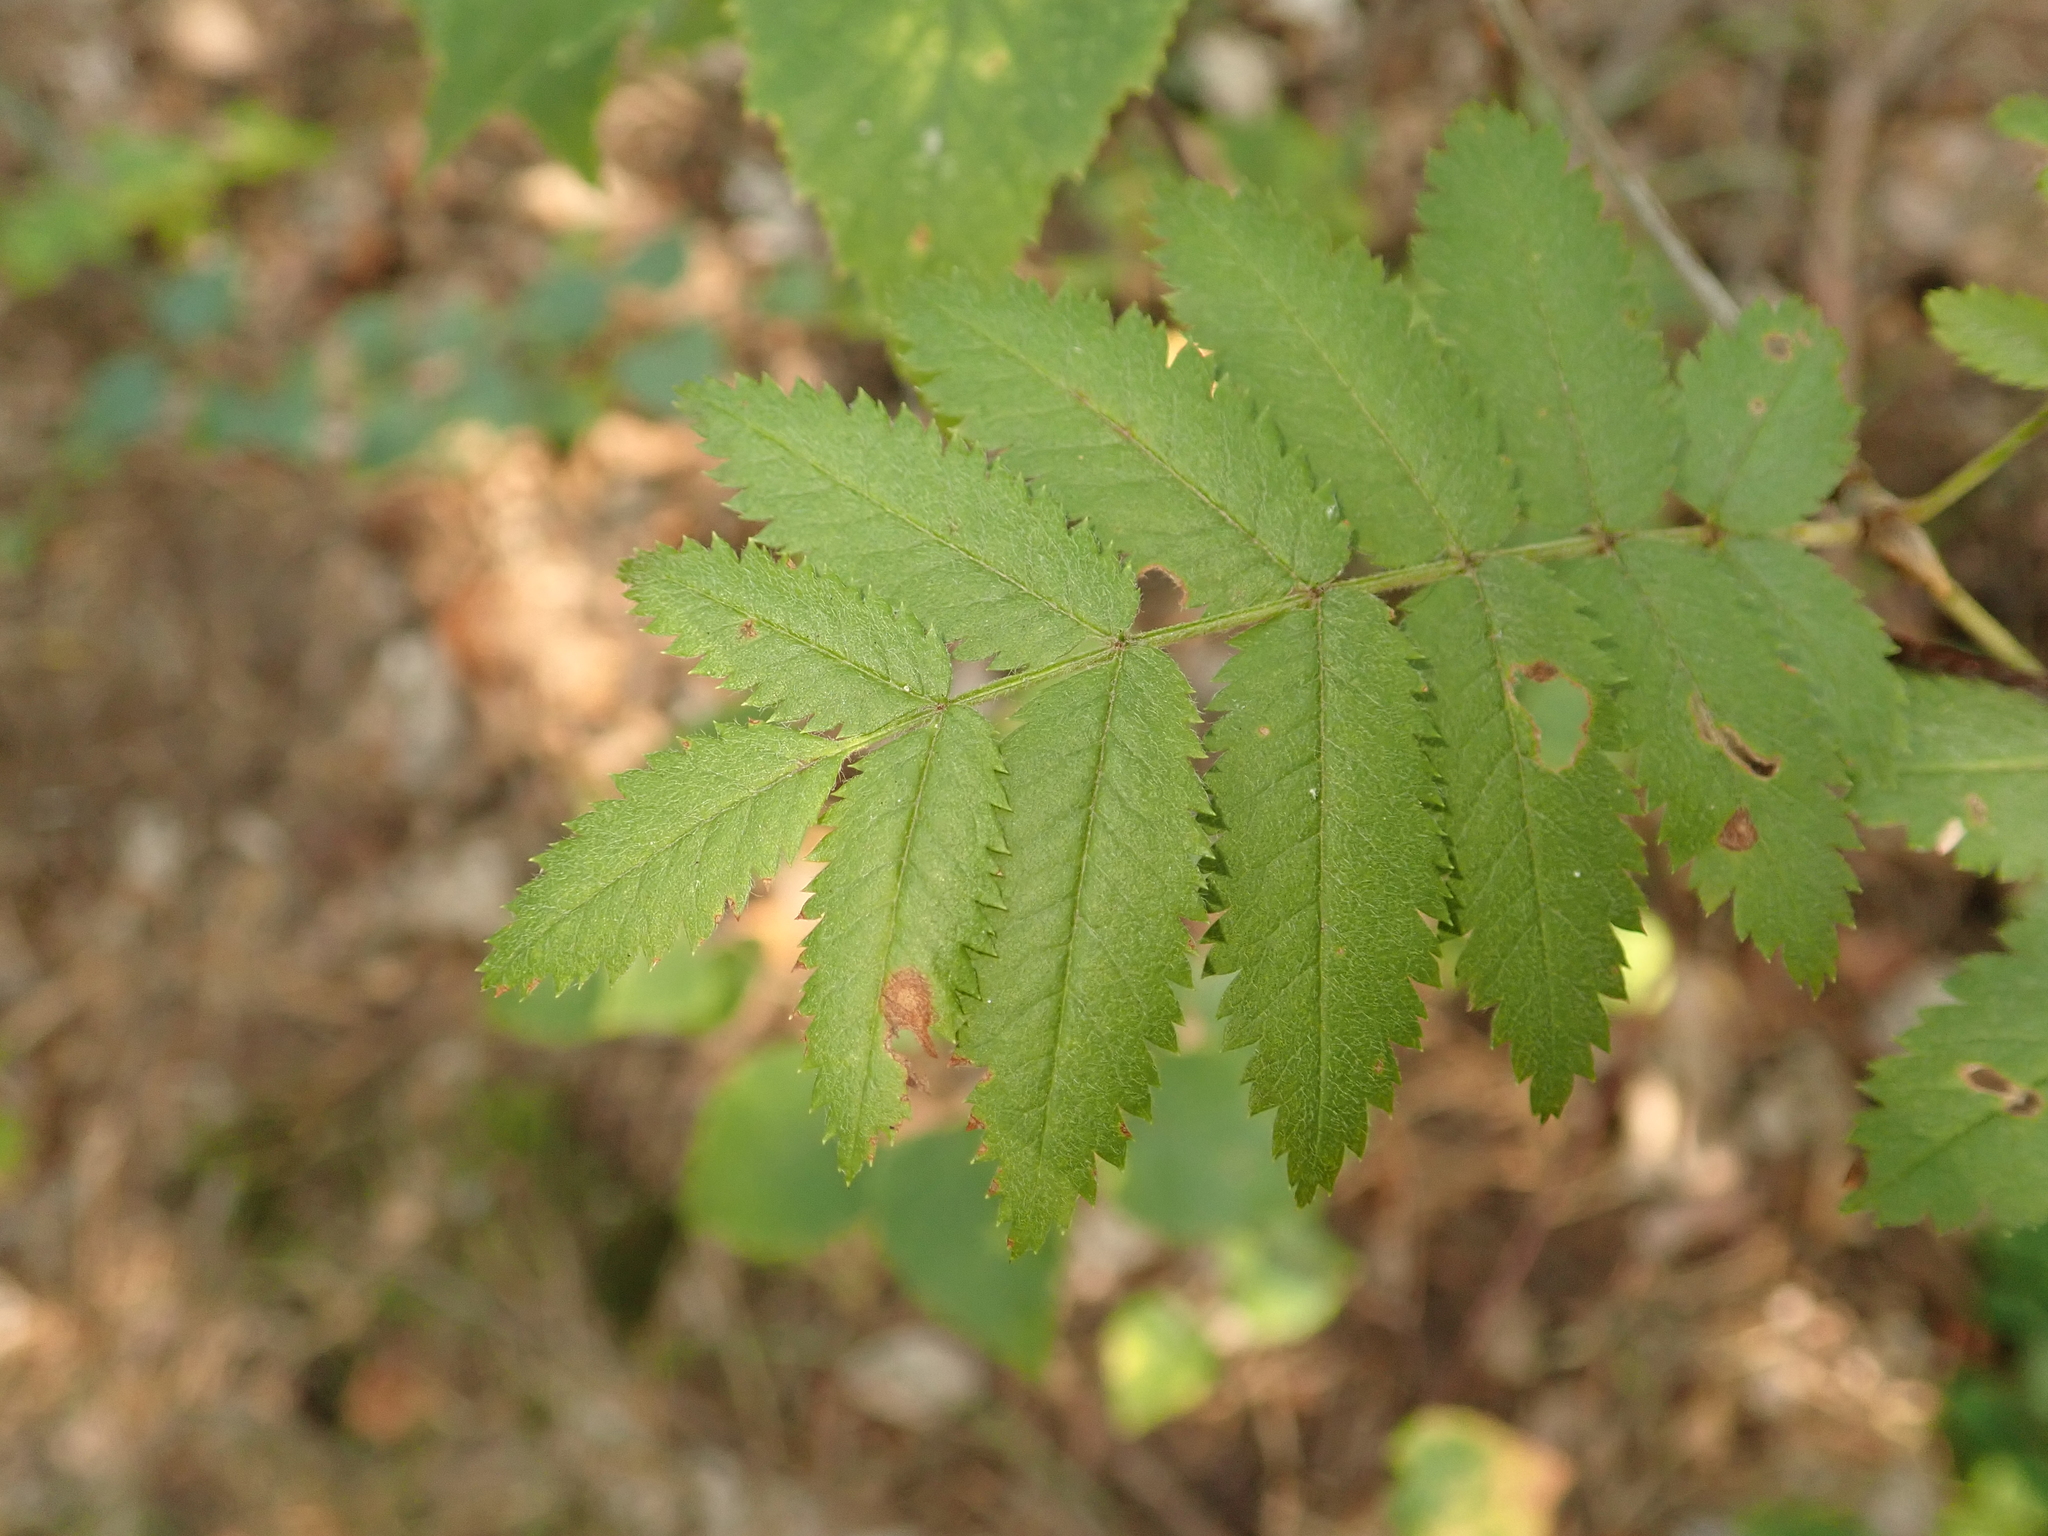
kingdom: Plantae
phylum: Tracheophyta
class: Magnoliopsida
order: Rosales
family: Rosaceae
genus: Sorbus
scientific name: Sorbus aucuparia
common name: Rowan
